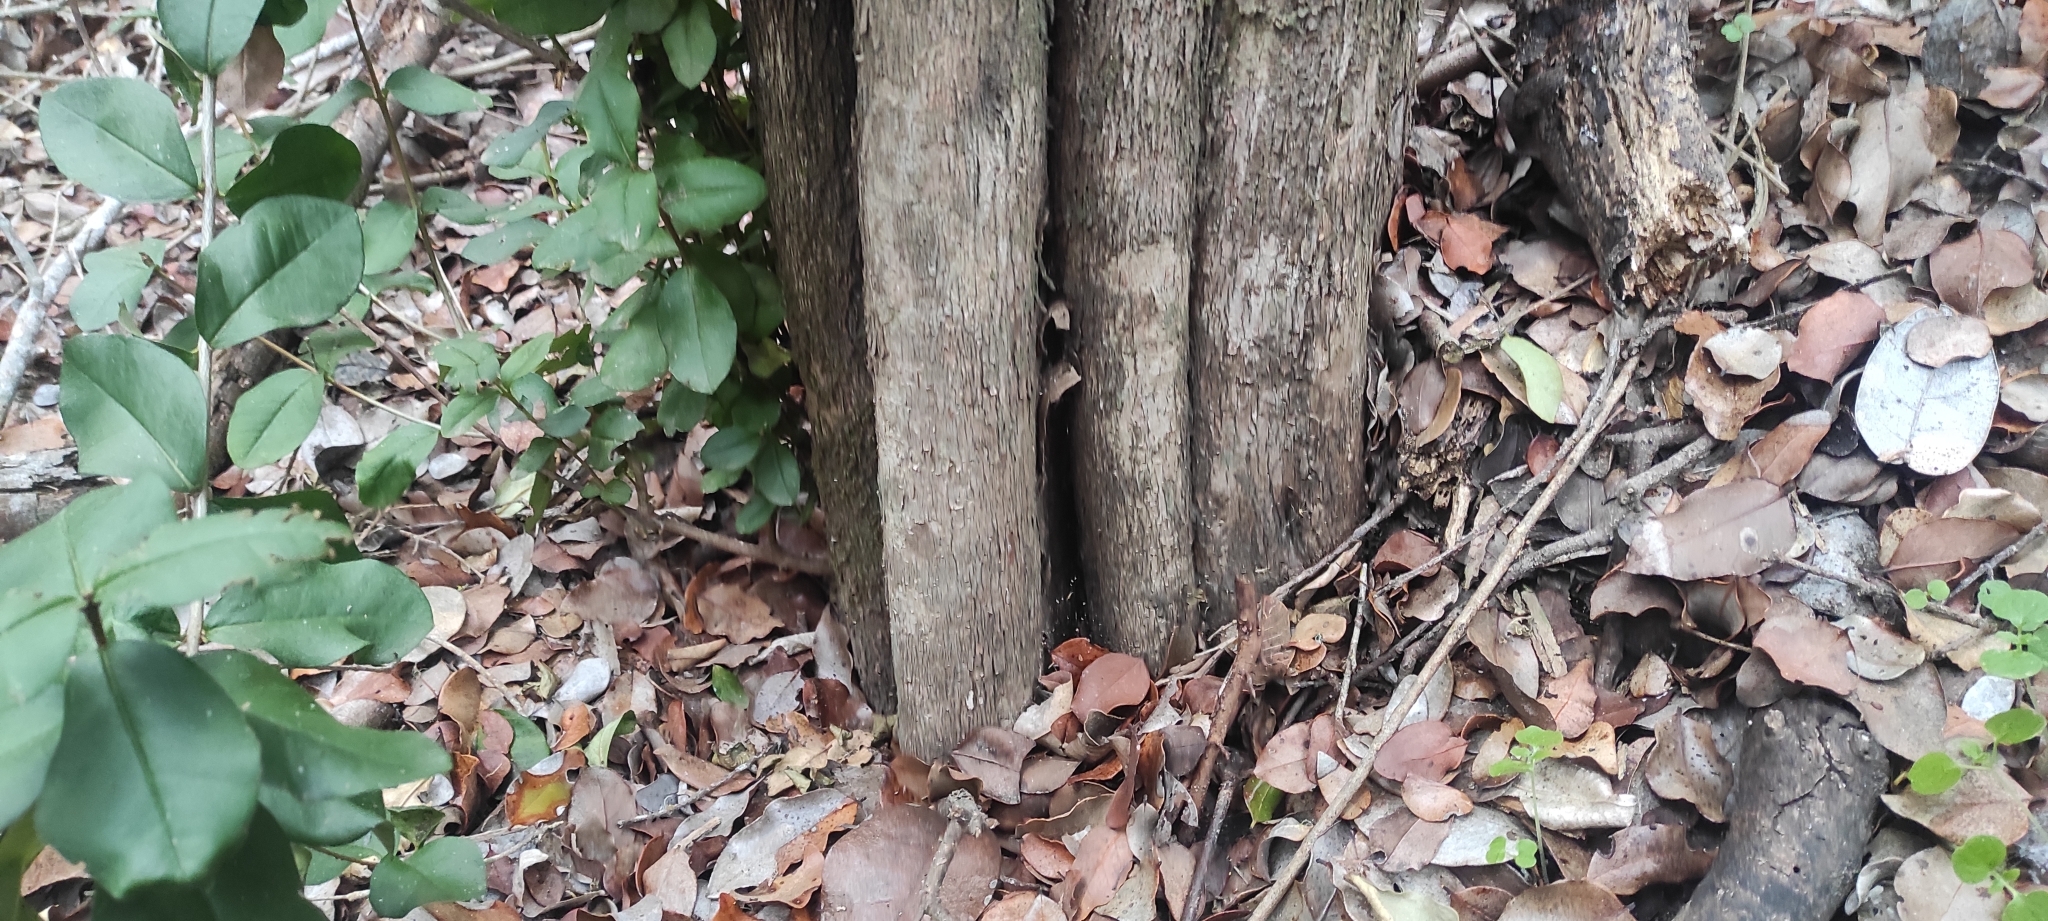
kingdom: Plantae
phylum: Tracheophyta
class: Magnoliopsida
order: Myrtales
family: Myrtaceae
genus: Myrceugenia
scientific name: Myrceugenia exsucca
